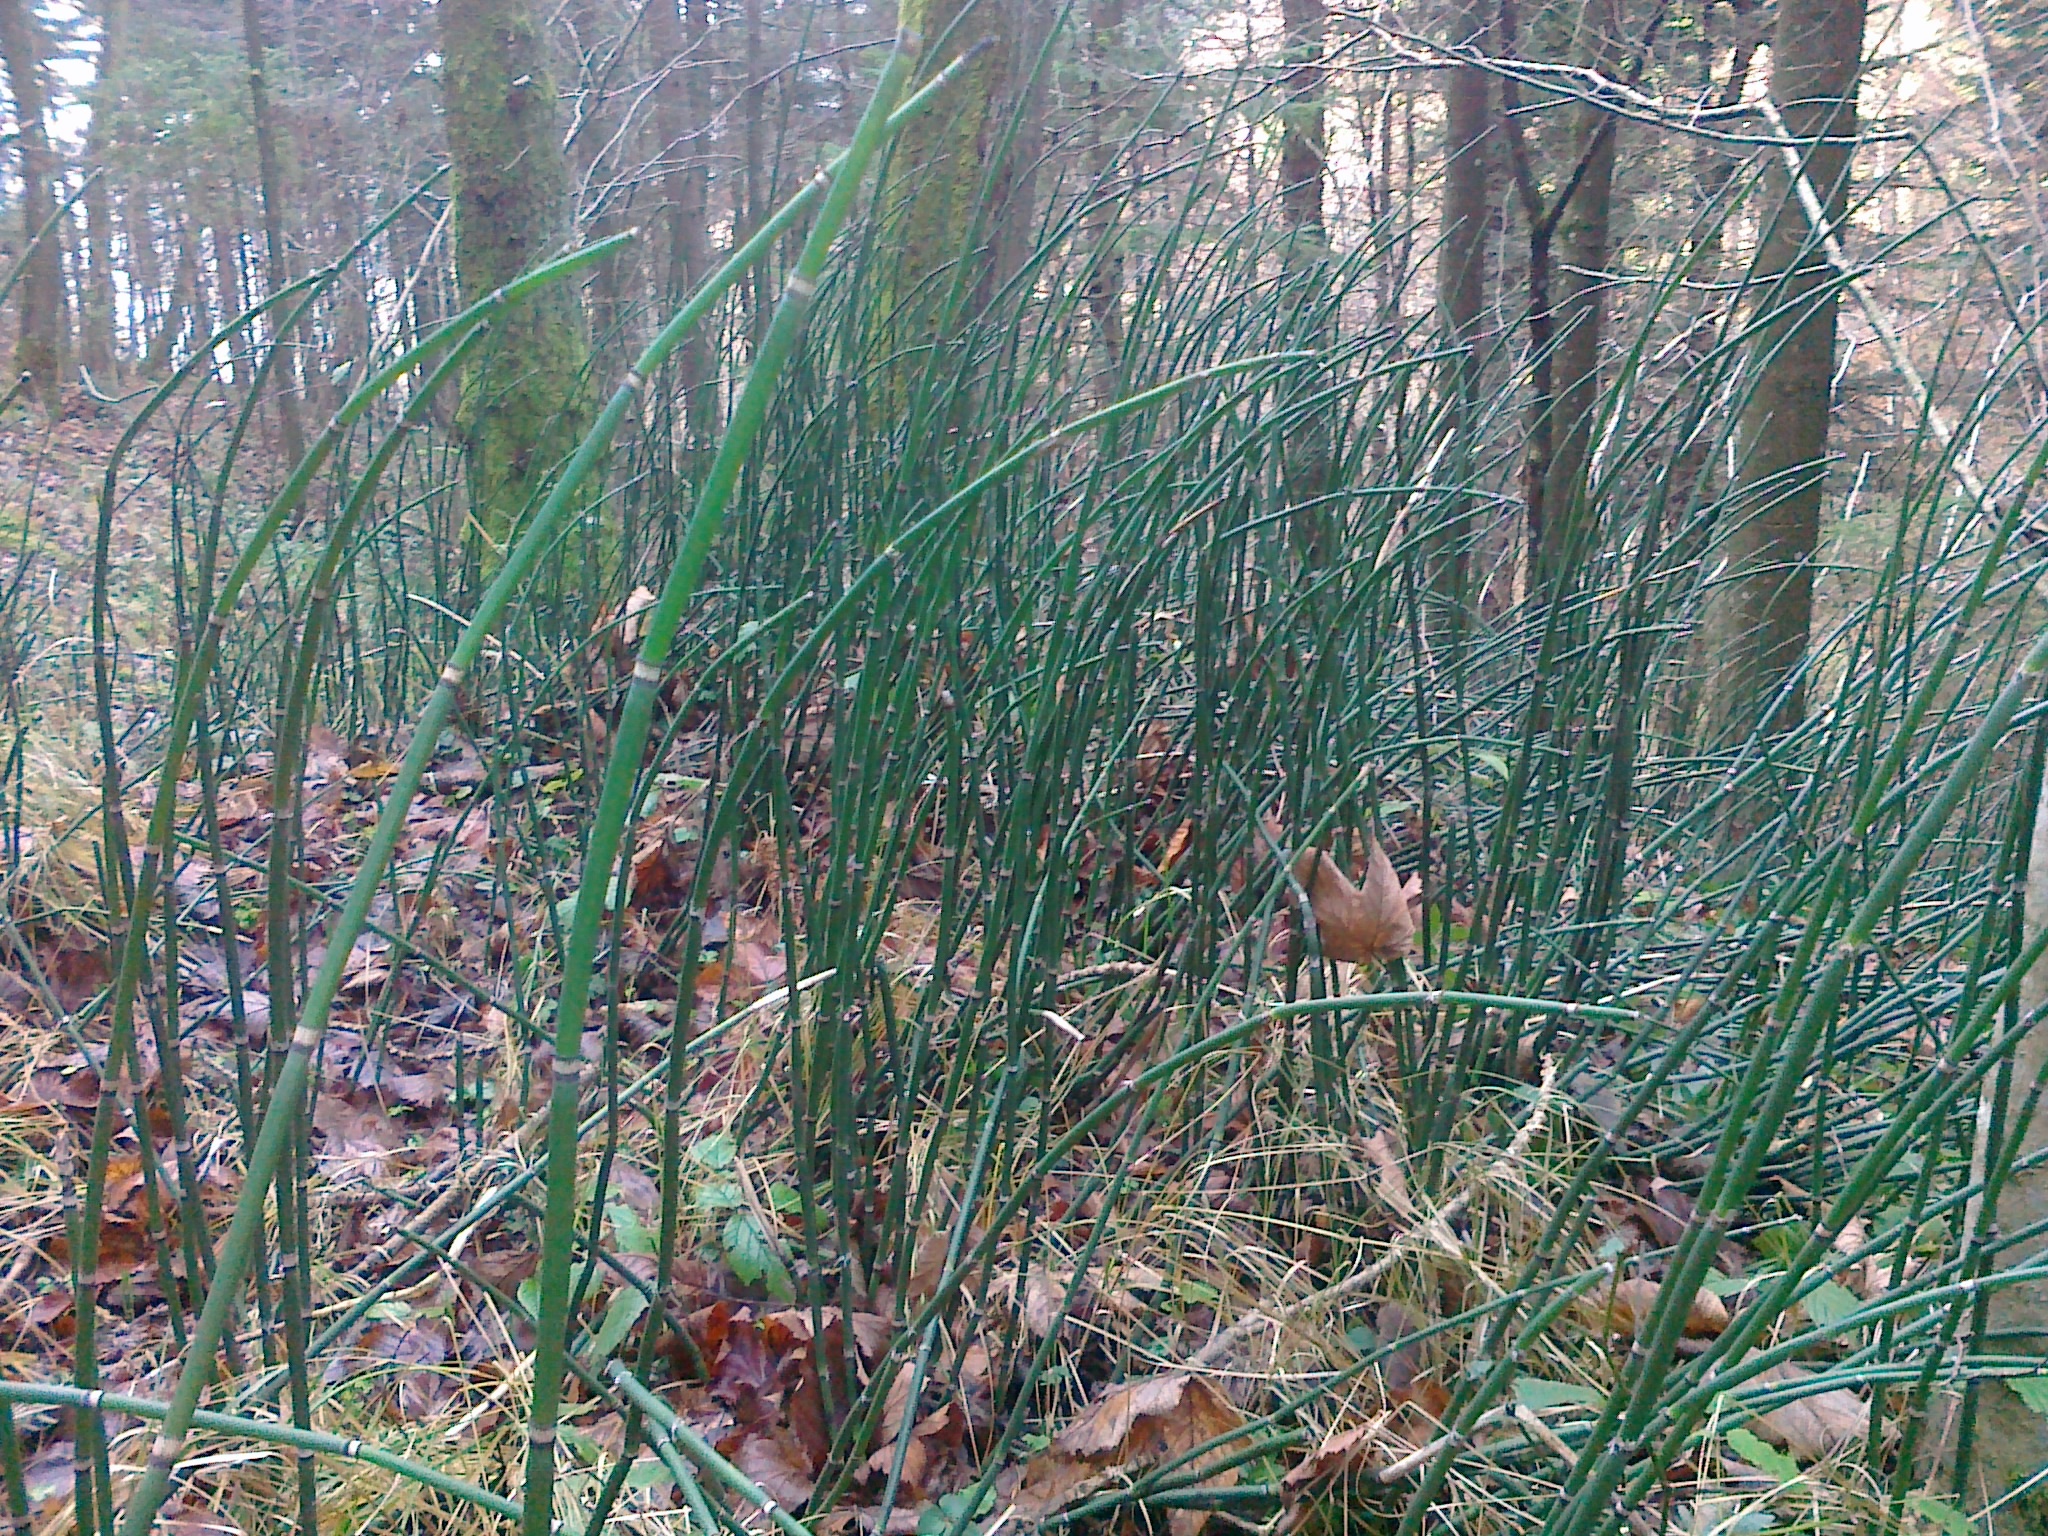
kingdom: Plantae
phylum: Tracheophyta
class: Polypodiopsida
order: Equisetales
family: Equisetaceae
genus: Equisetum
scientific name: Equisetum hyemale
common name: Rough horsetail
